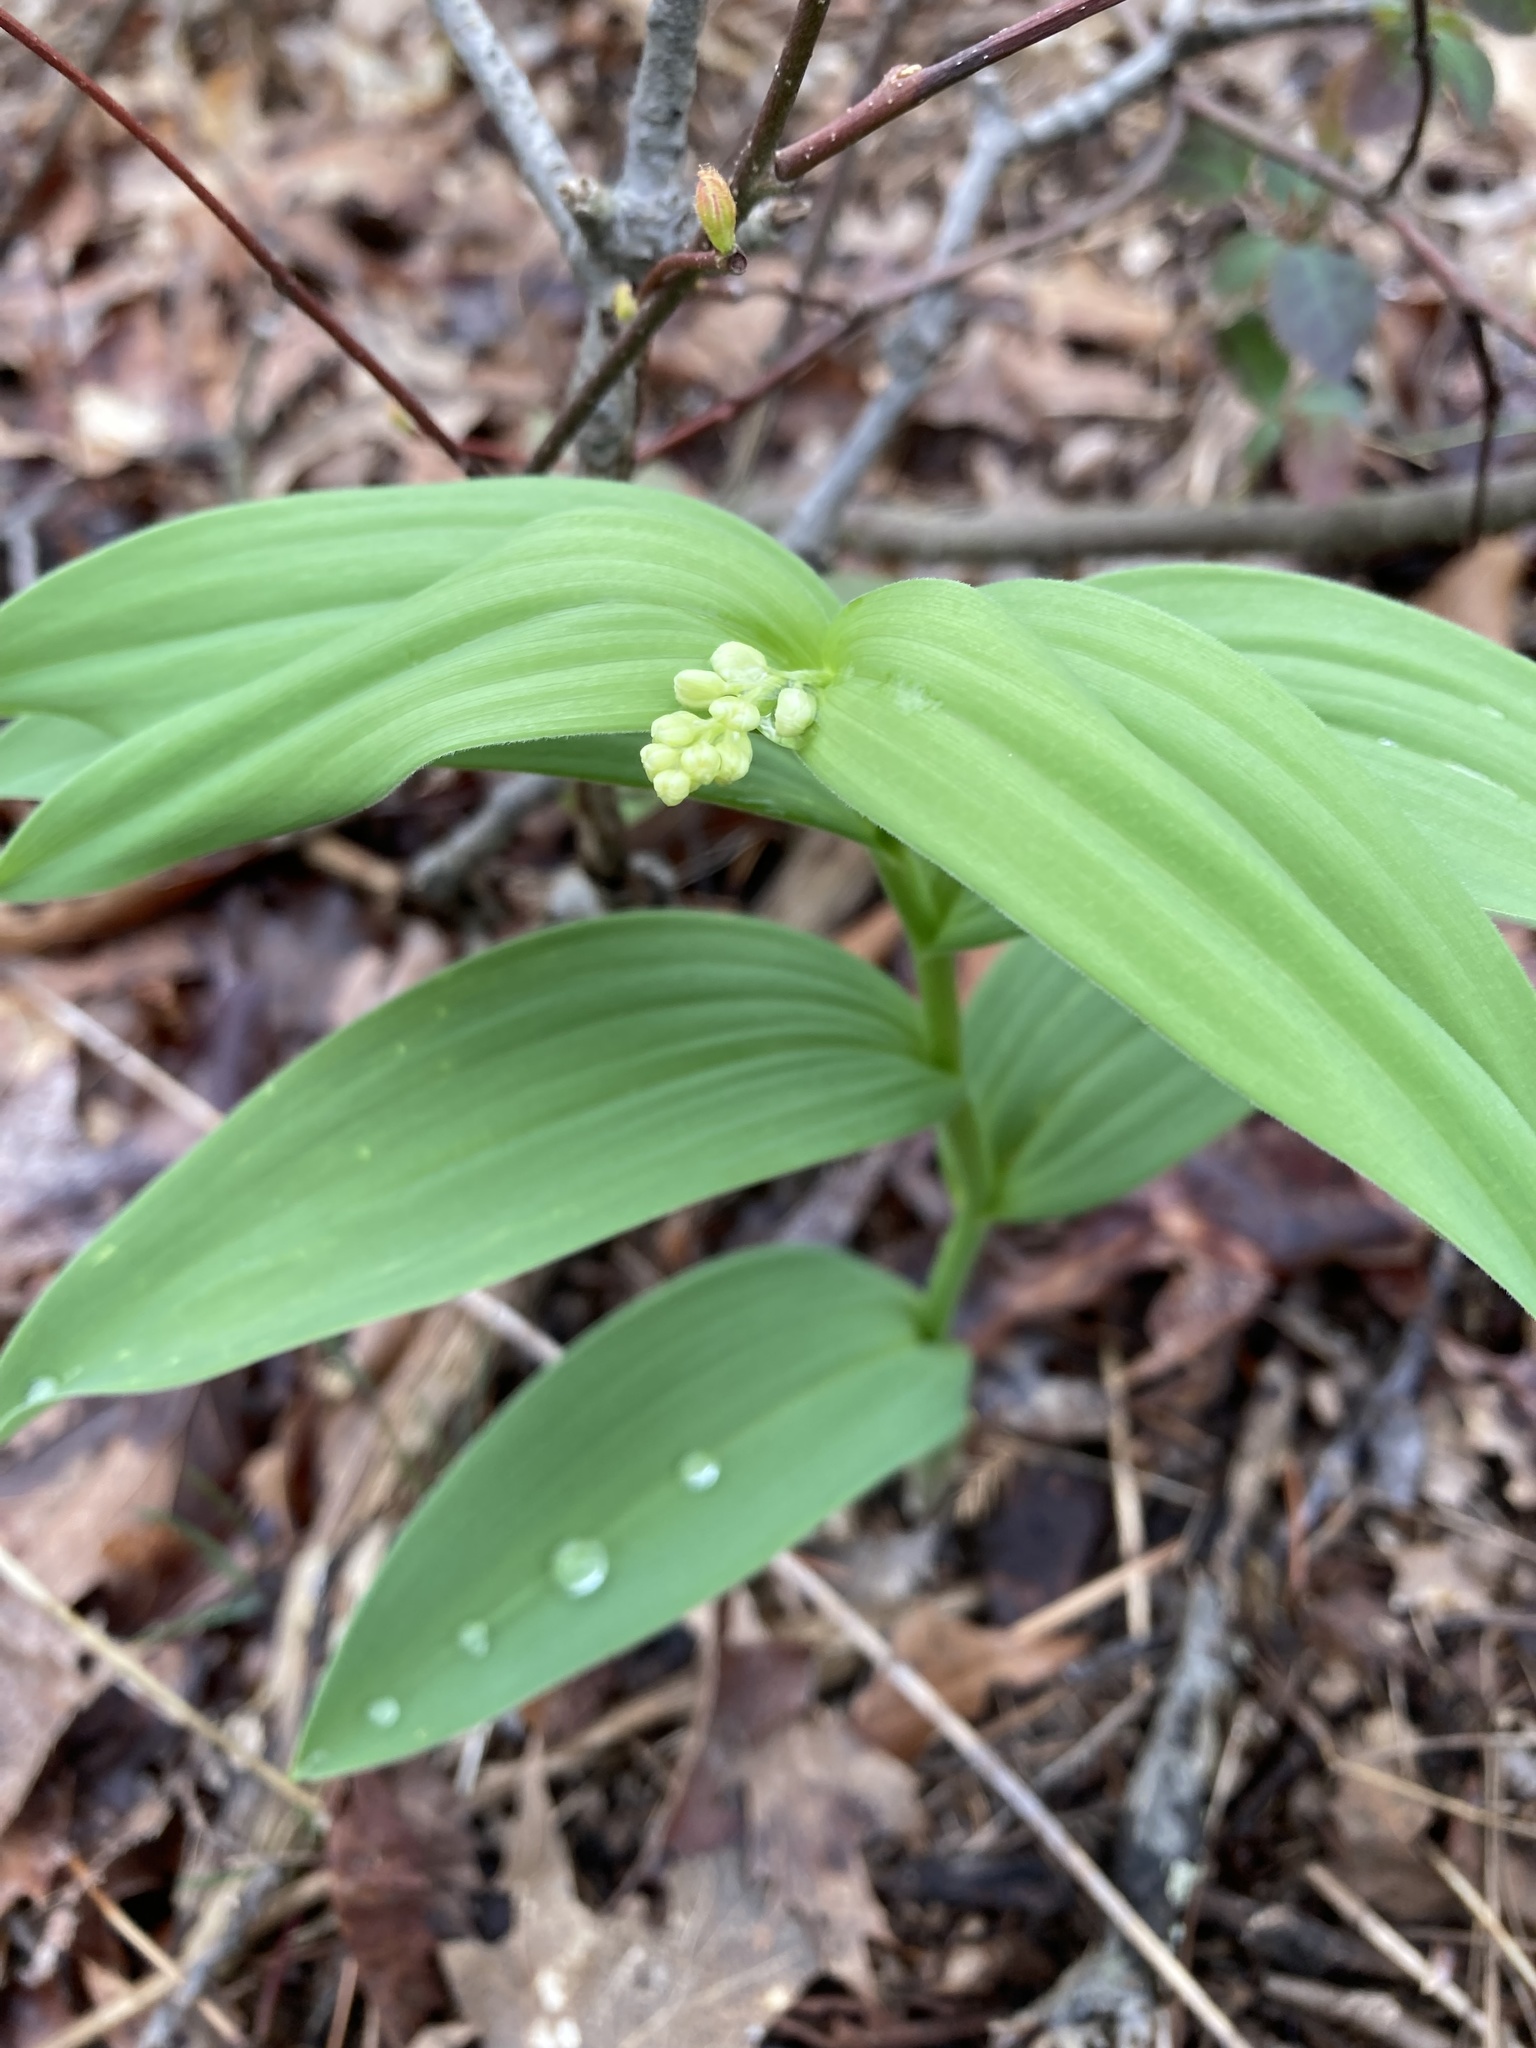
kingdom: Plantae
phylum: Tracheophyta
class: Liliopsida
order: Asparagales
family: Asparagaceae
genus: Maianthemum
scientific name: Maianthemum stellatum
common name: Little false solomon's seal
